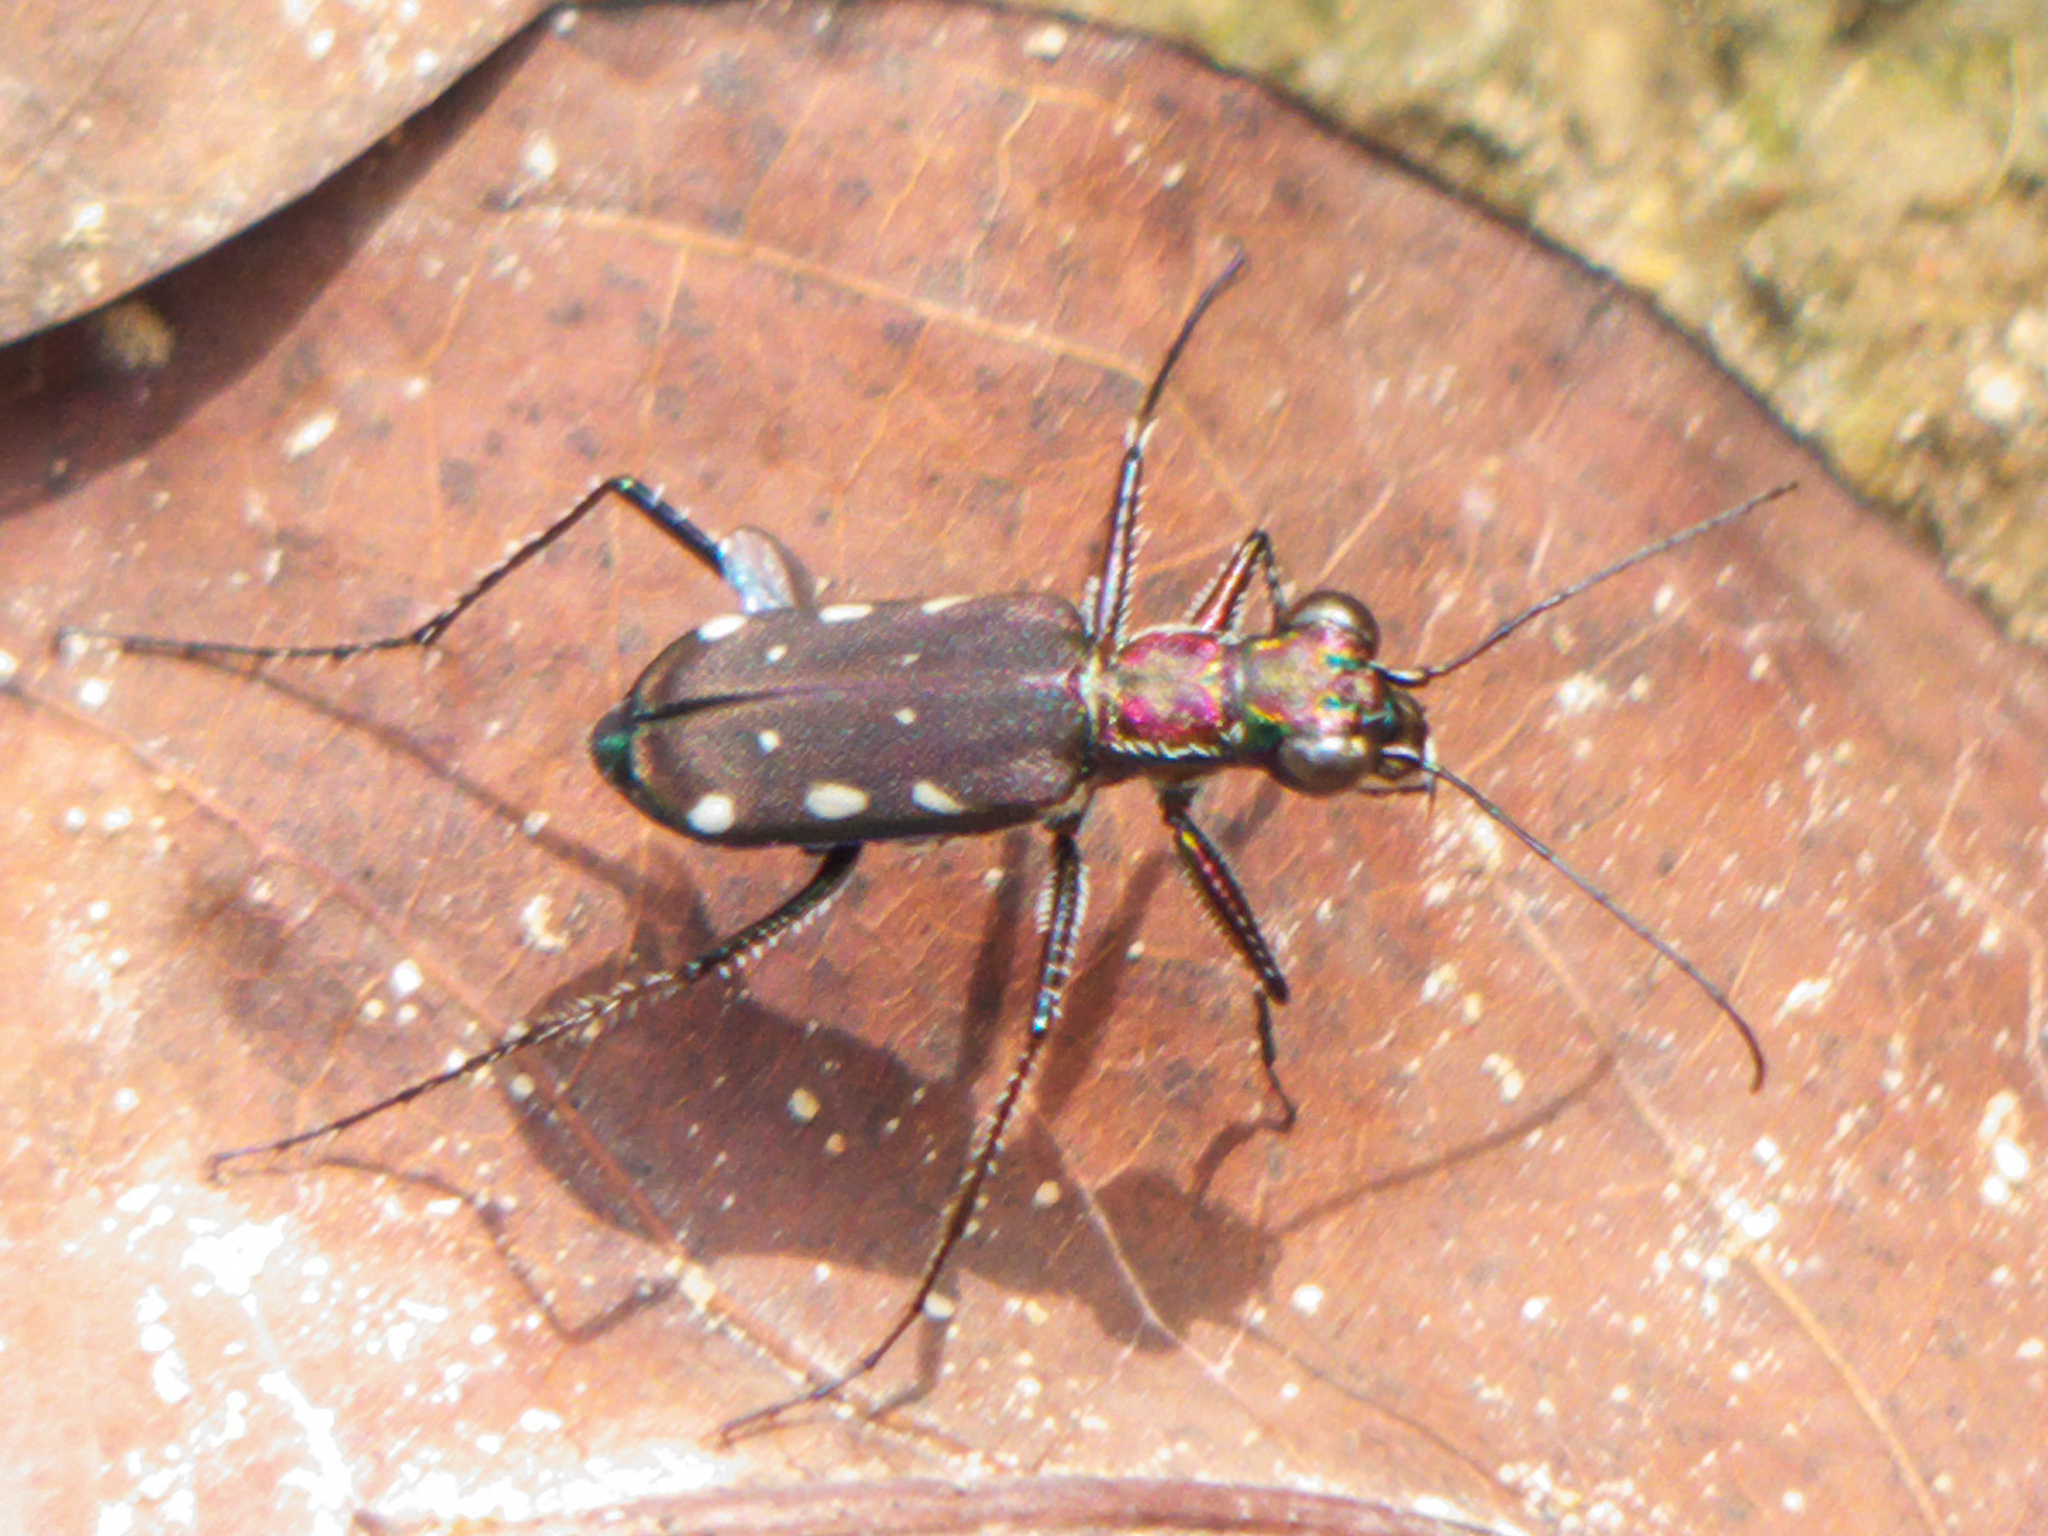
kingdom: Animalia
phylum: Arthropoda
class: Insecta
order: Coleoptera
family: Carabidae
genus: Lophyra
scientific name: Lophyra lineifrons
